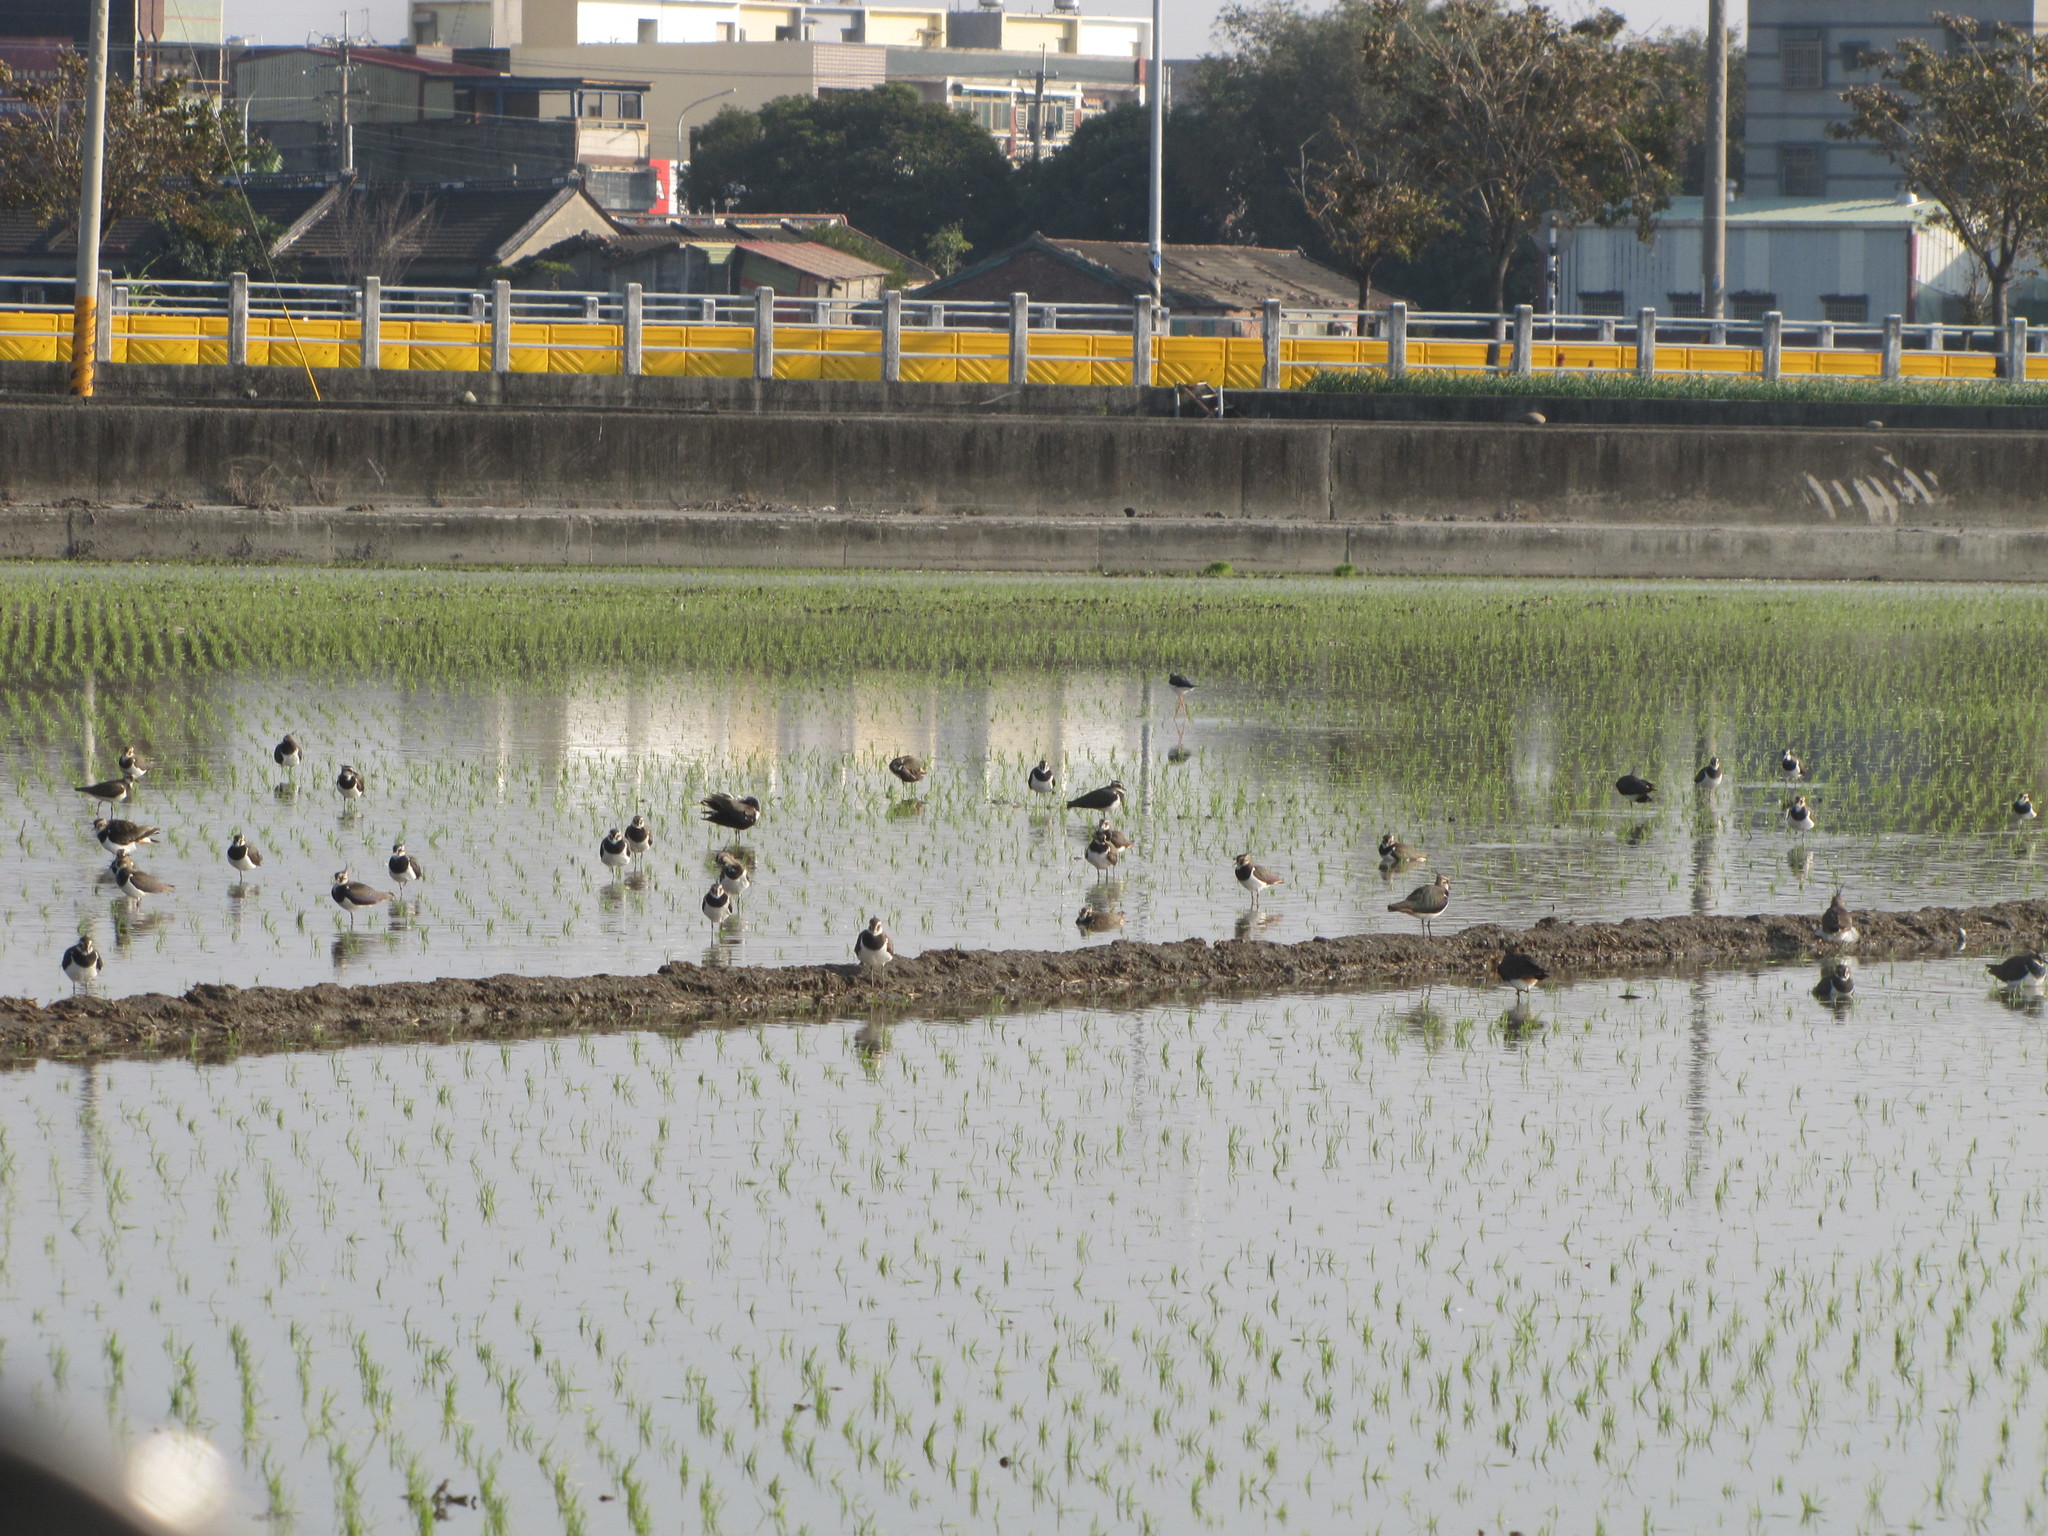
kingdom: Animalia
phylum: Chordata
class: Aves
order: Charadriiformes
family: Charadriidae
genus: Vanellus
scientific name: Vanellus vanellus
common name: Northern lapwing
